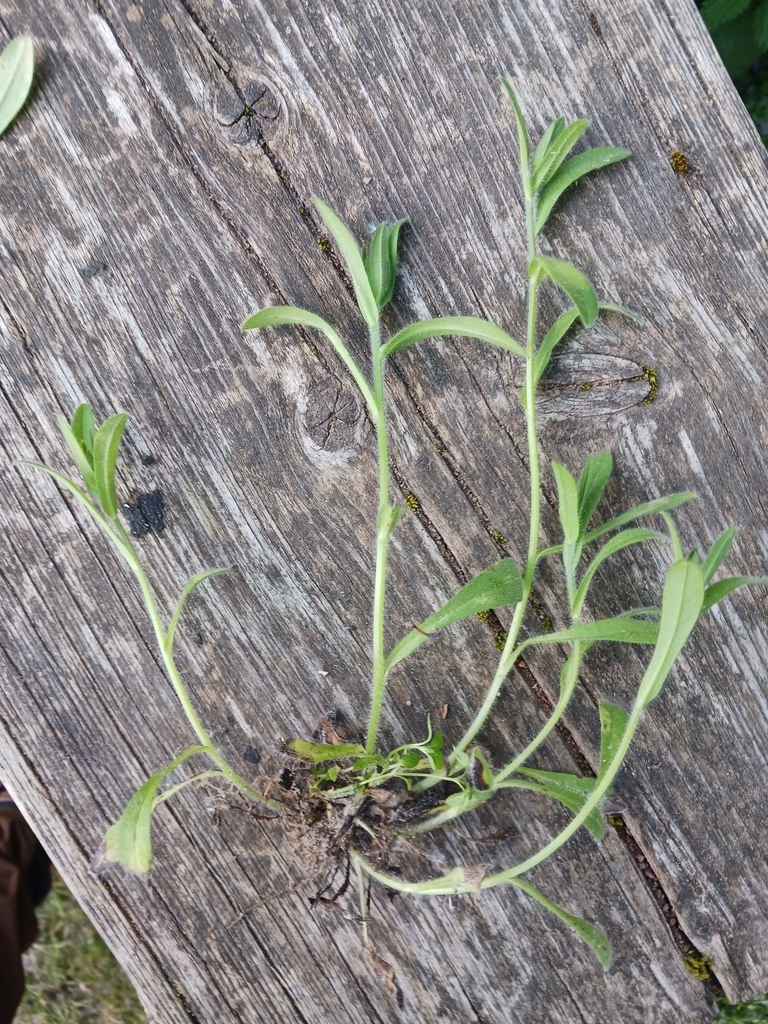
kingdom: Chromista
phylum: Oomycota
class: Peronosporea
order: Peronosporales
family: Peronosporaceae
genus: Peronospora
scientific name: Peronospora lithospermi
